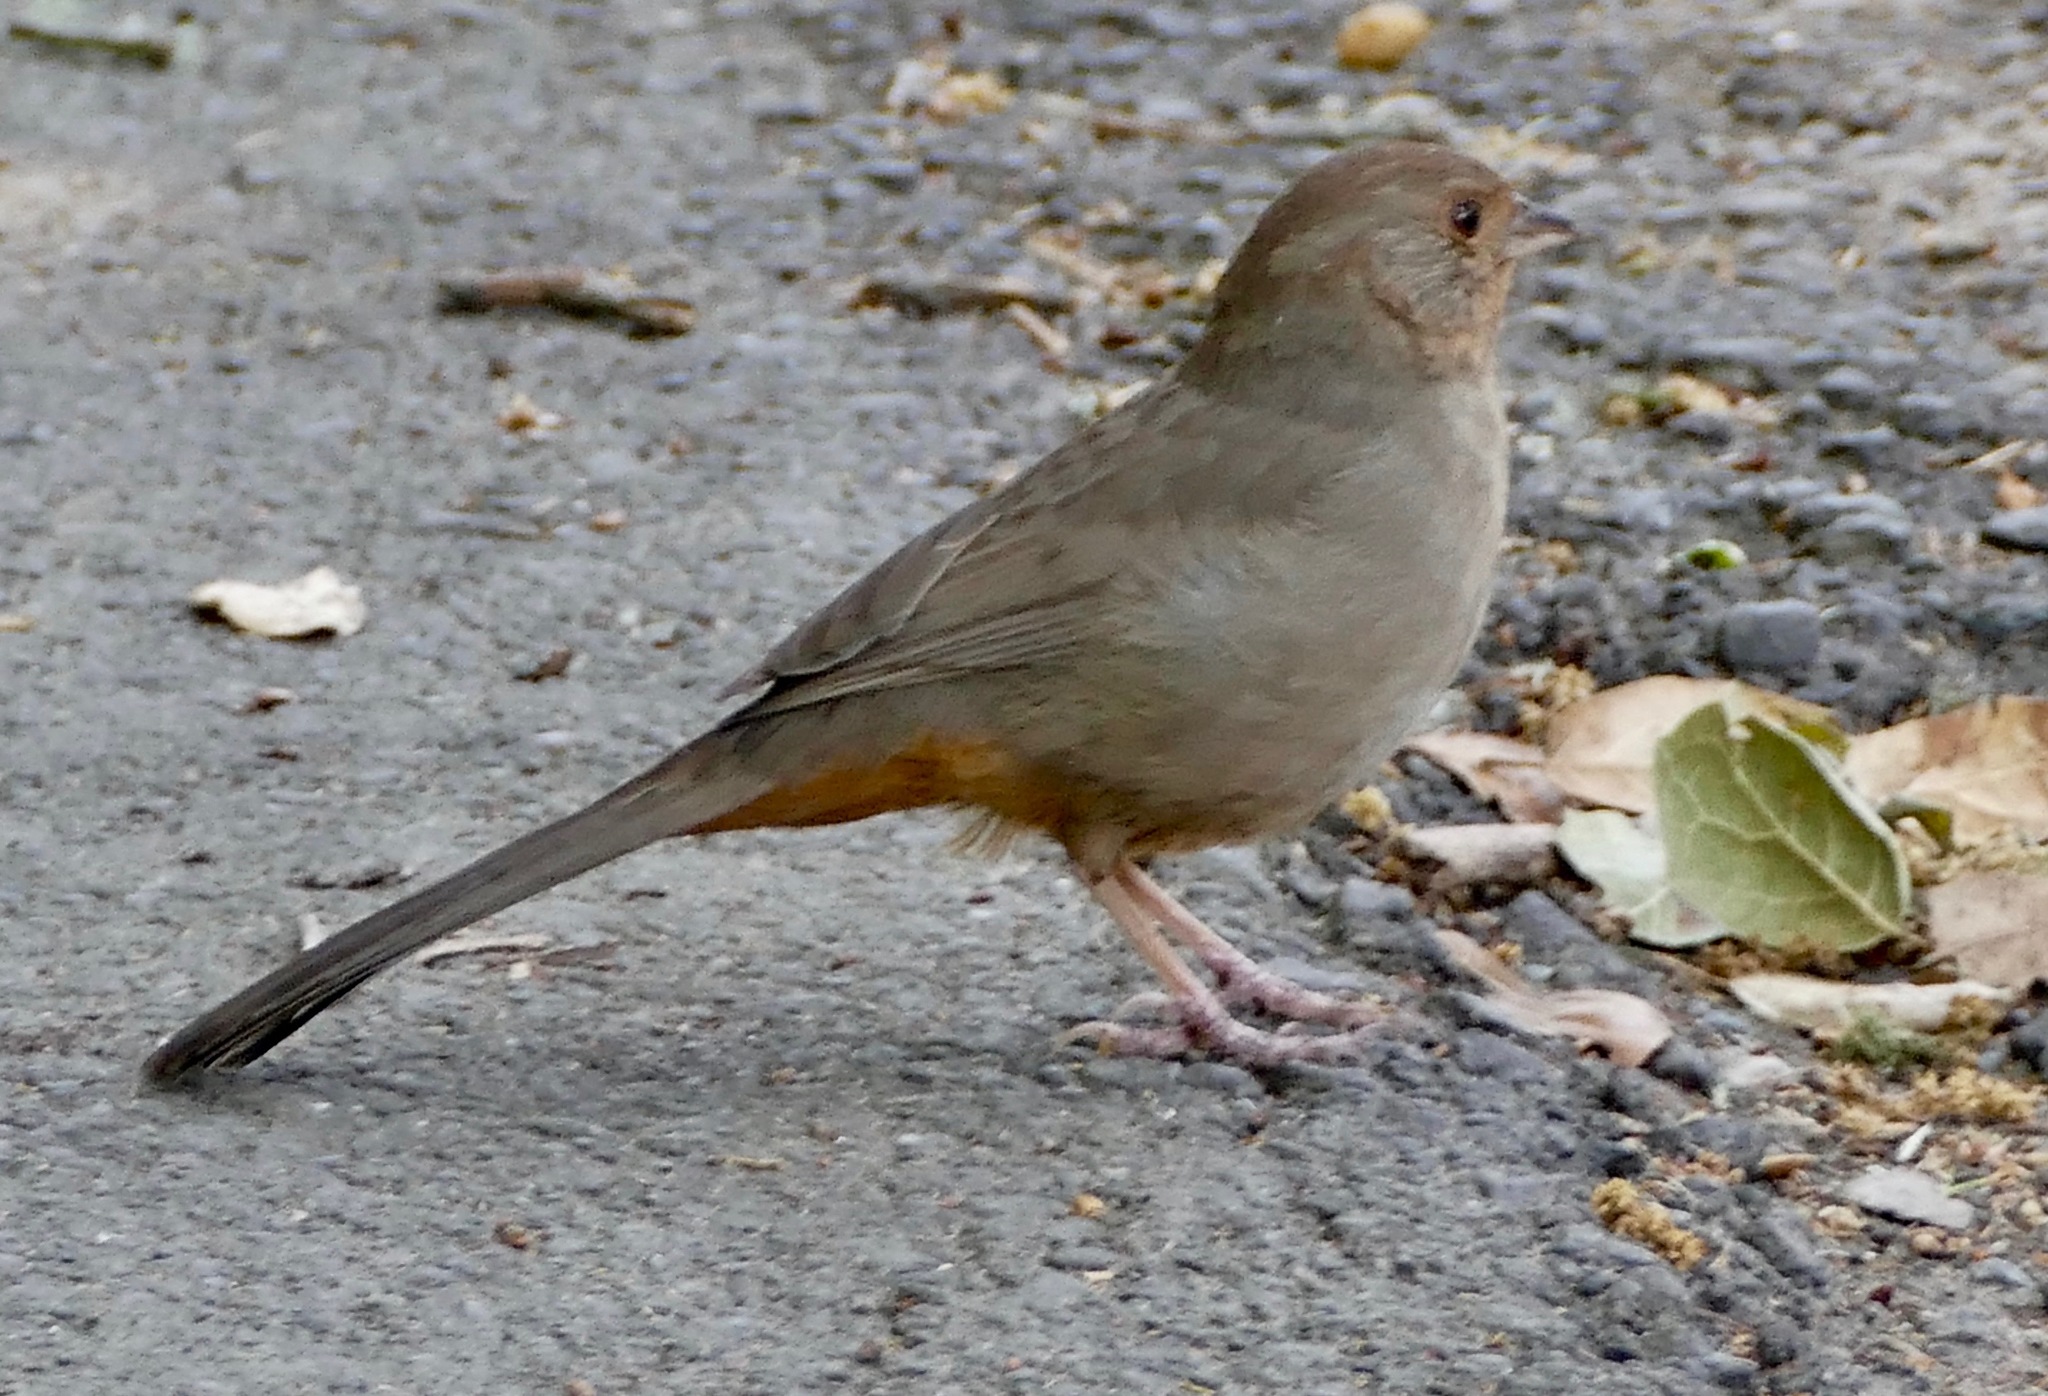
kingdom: Animalia
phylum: Chordata
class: Aves
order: Passeriformes
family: Passerellidae
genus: Melozone
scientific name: Melozone crissalis
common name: California towhee
